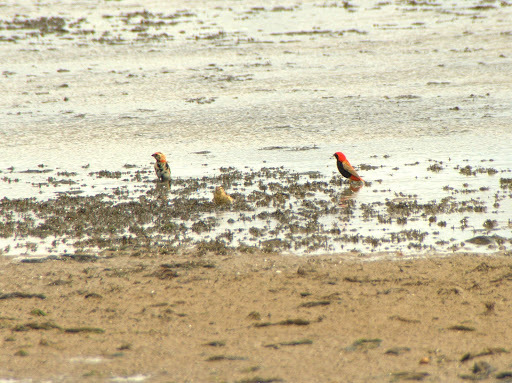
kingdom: Animalia
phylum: Chordata
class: Aves
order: Passeriformes
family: Ploceidae
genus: Euplectes
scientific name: Euplectes nigroventris
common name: Zanzibar red bishop
